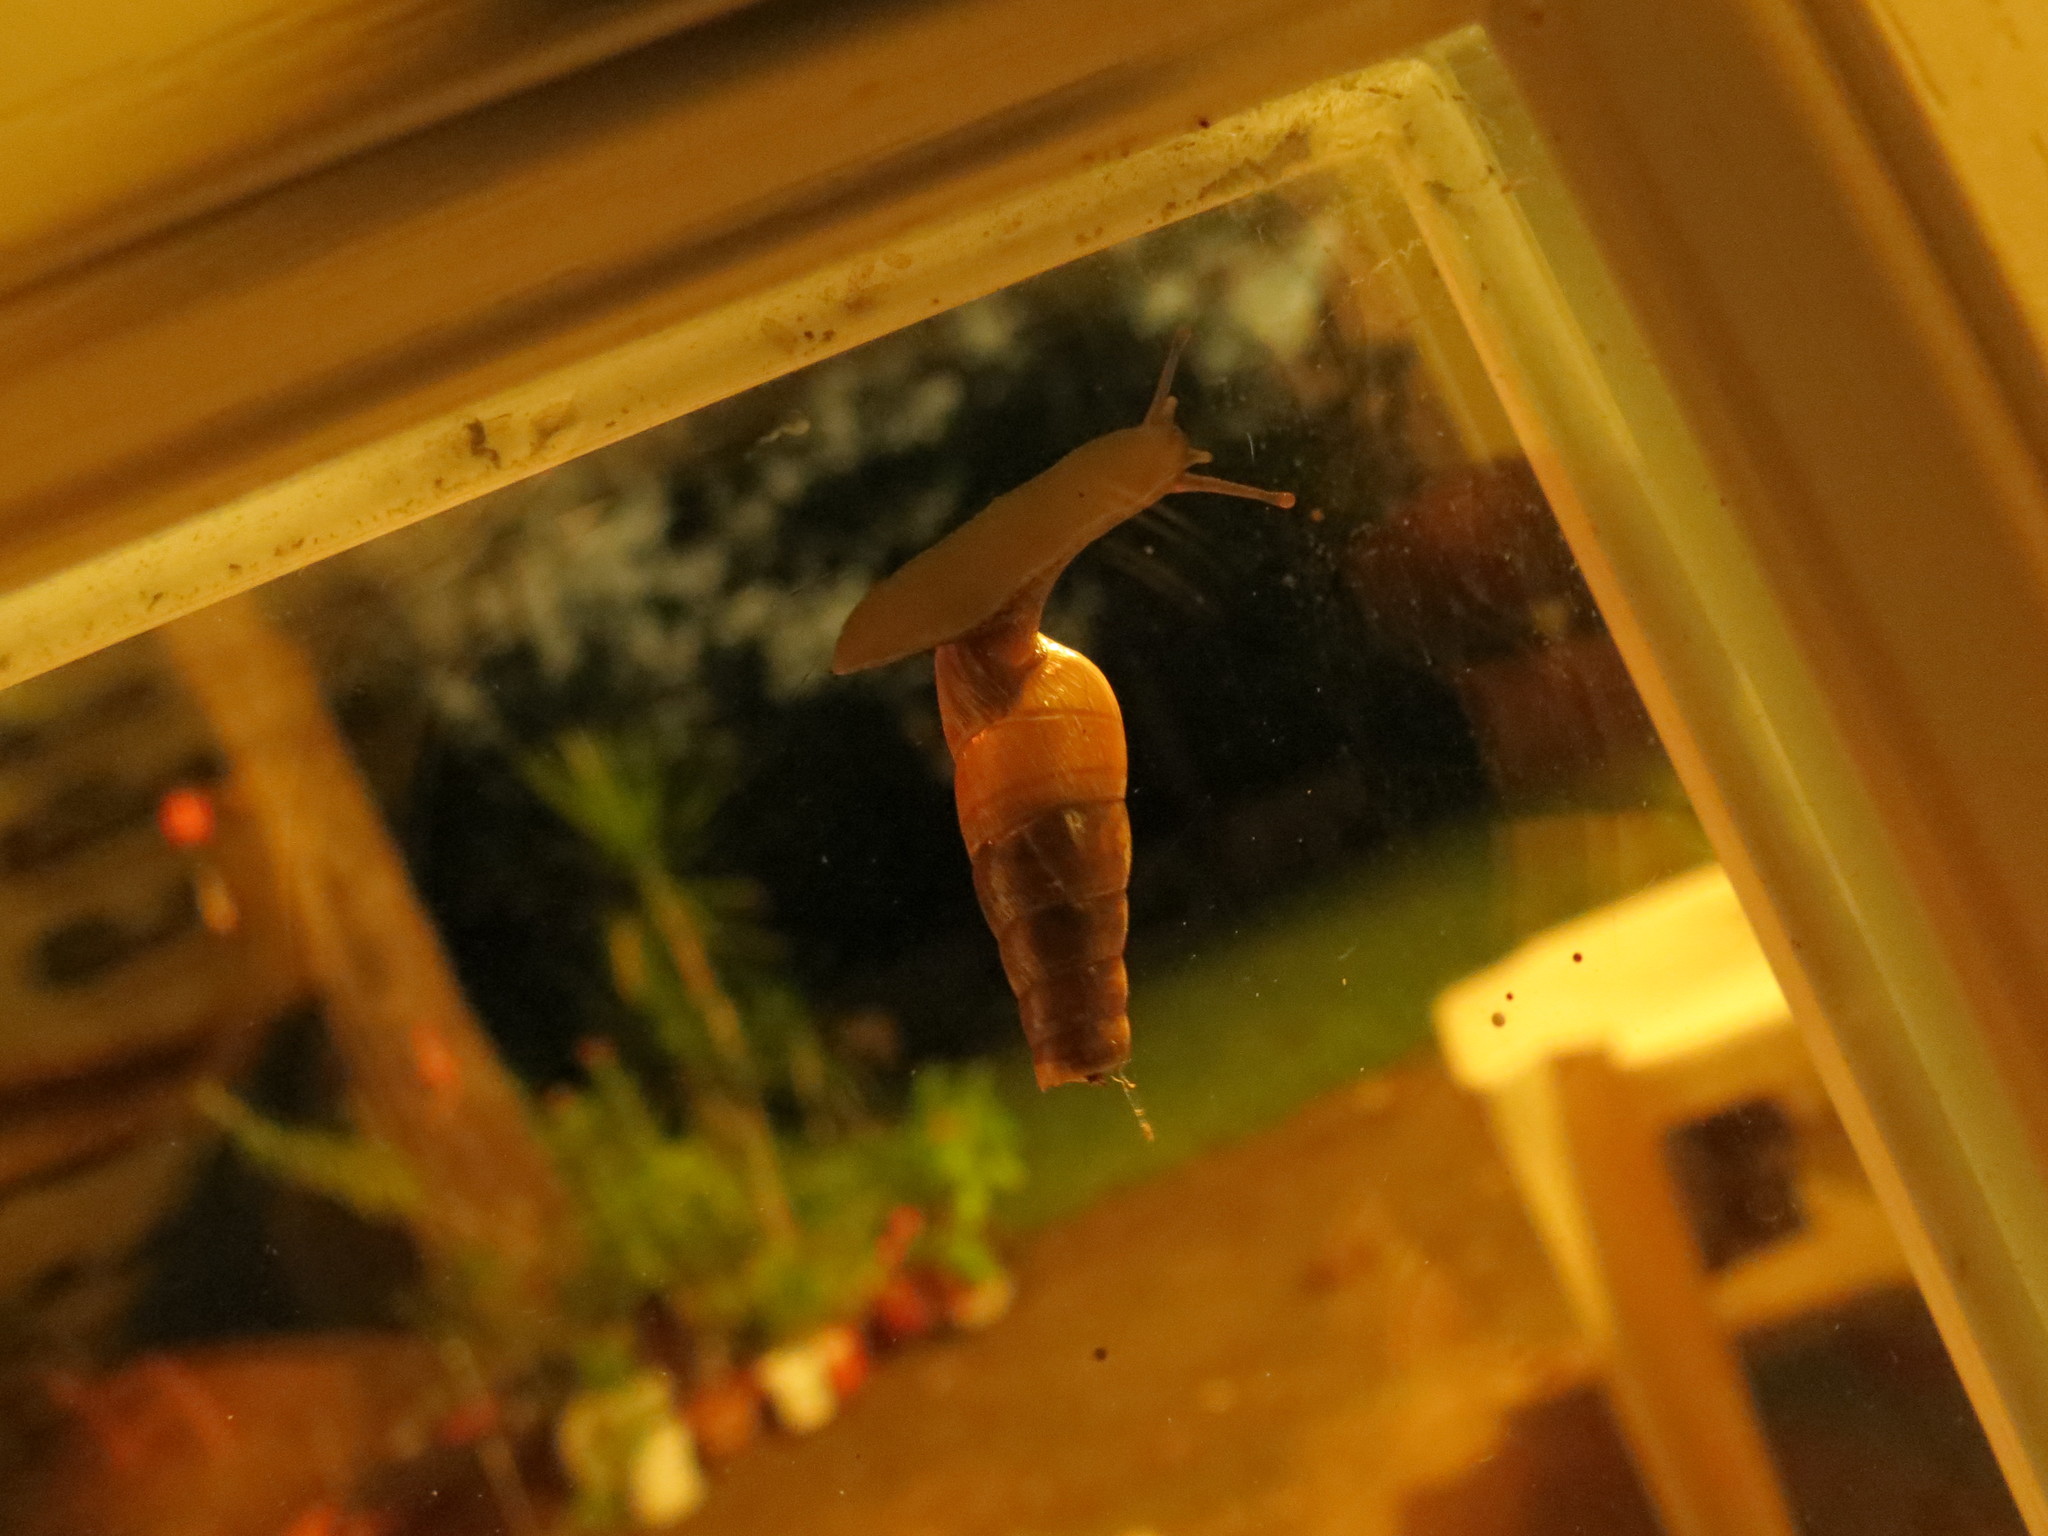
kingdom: Animalia
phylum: Mollusca
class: Gastropoda
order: Stylommatophora
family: Achatinidae
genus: Rumina
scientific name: Rumina decollata
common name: Decollate snail
